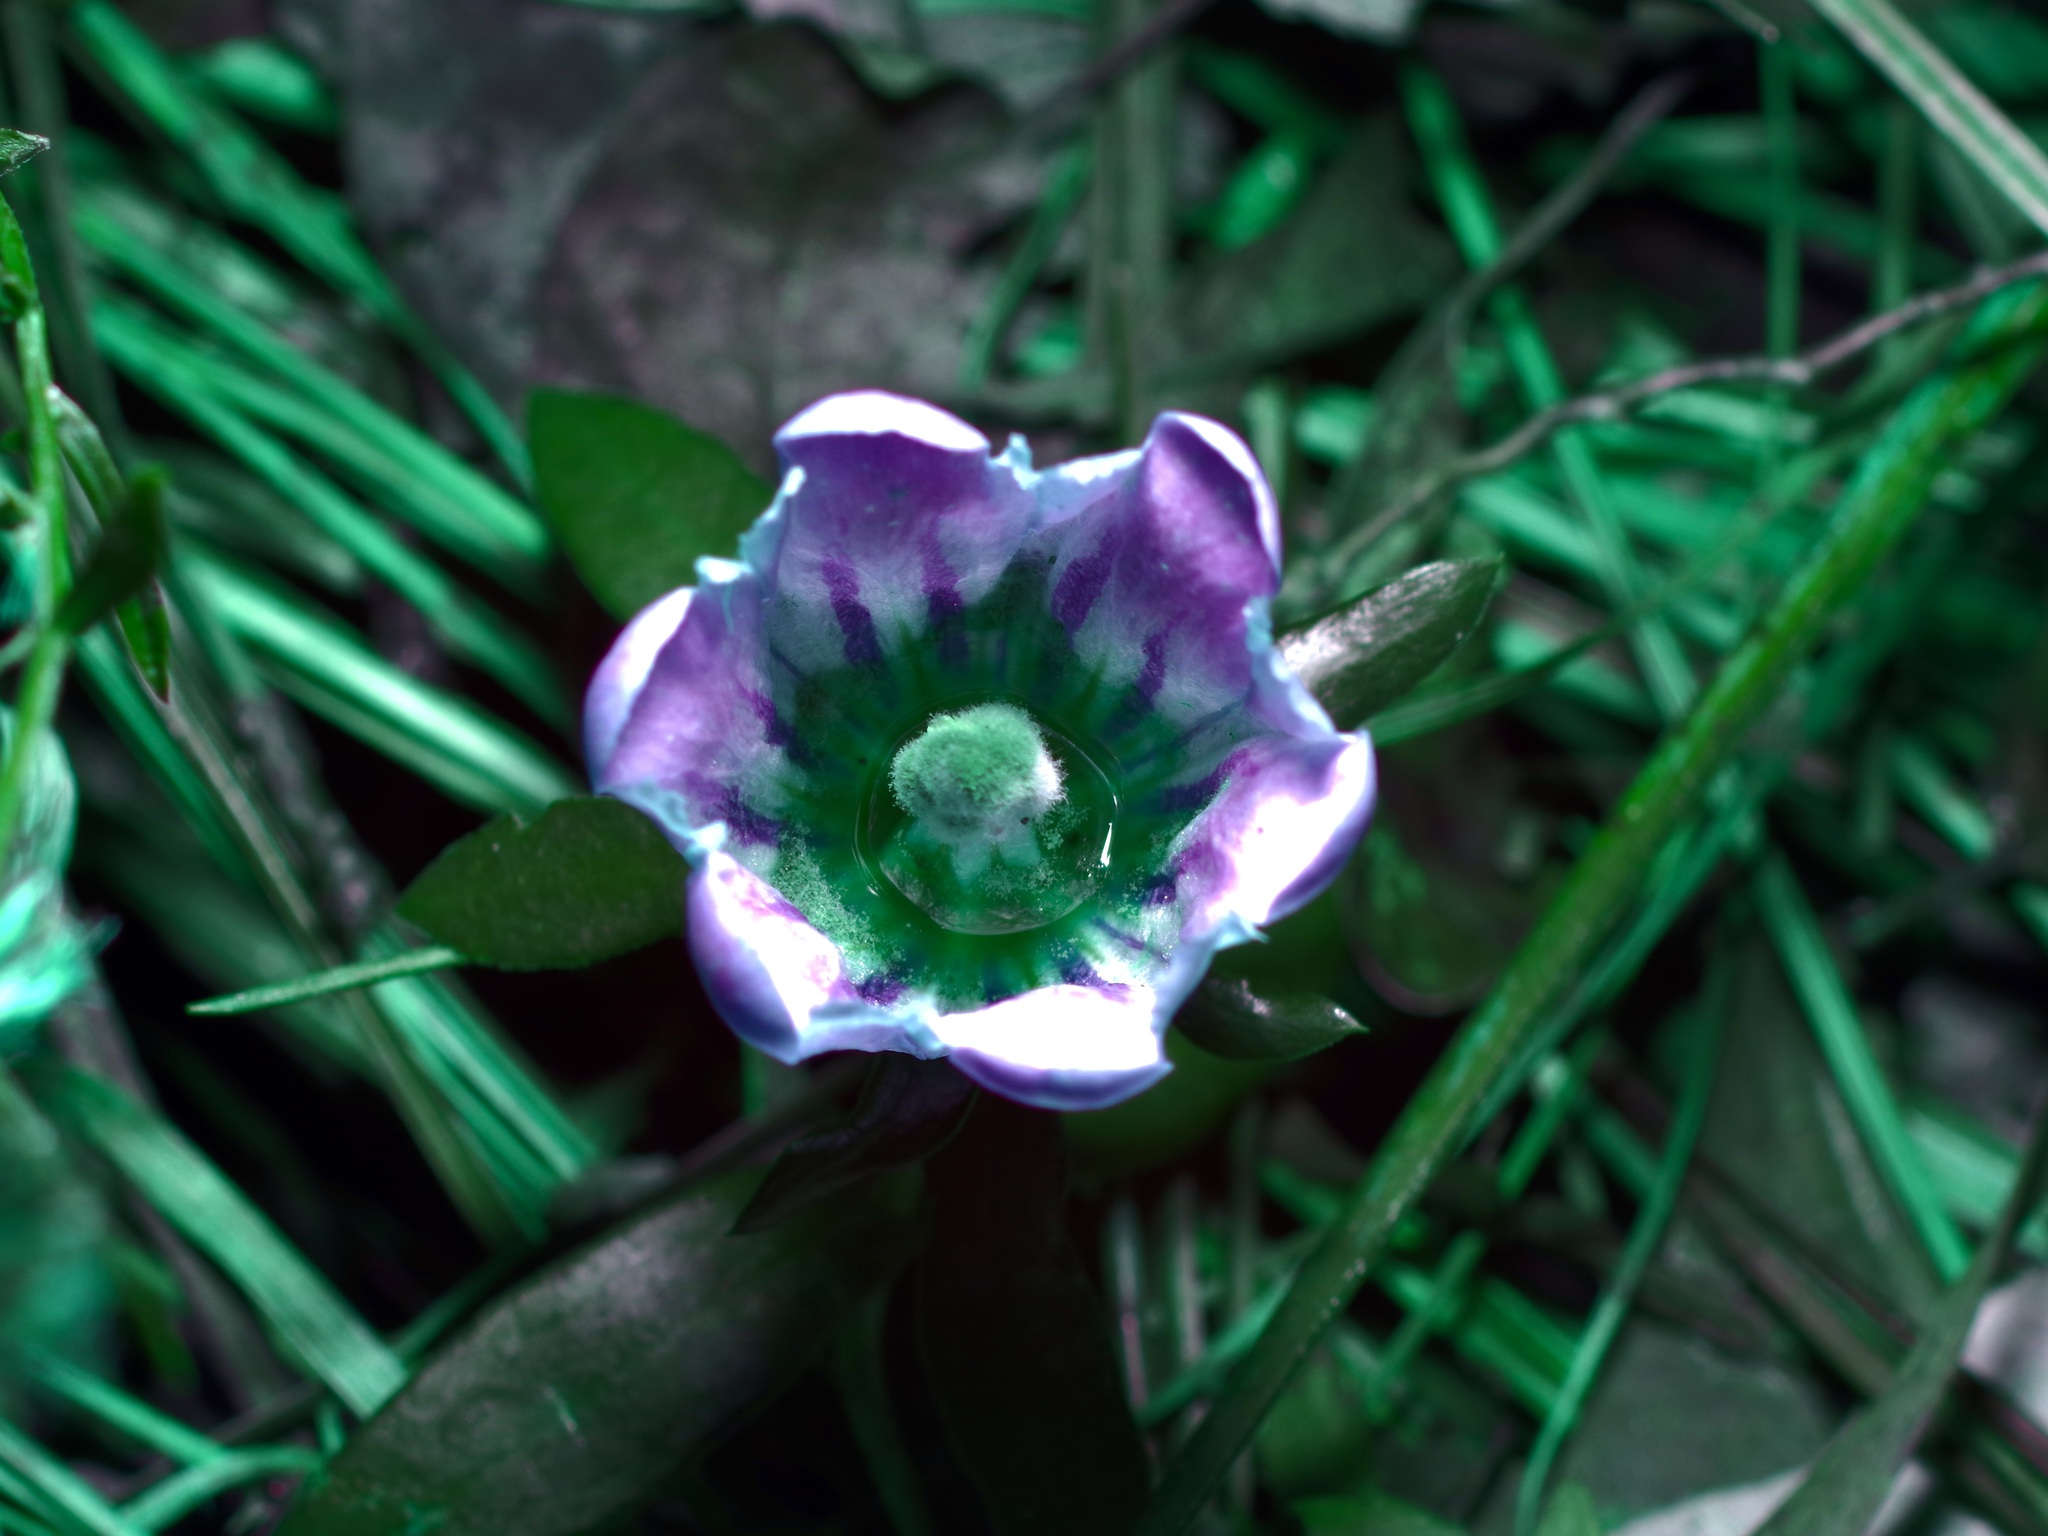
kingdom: Plantae
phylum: Tracheophyta
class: Magnoliopsida
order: Gentianales
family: Gentianaceae
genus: Gentiana
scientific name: Gentiana saponaria
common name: Soapwort gentian
